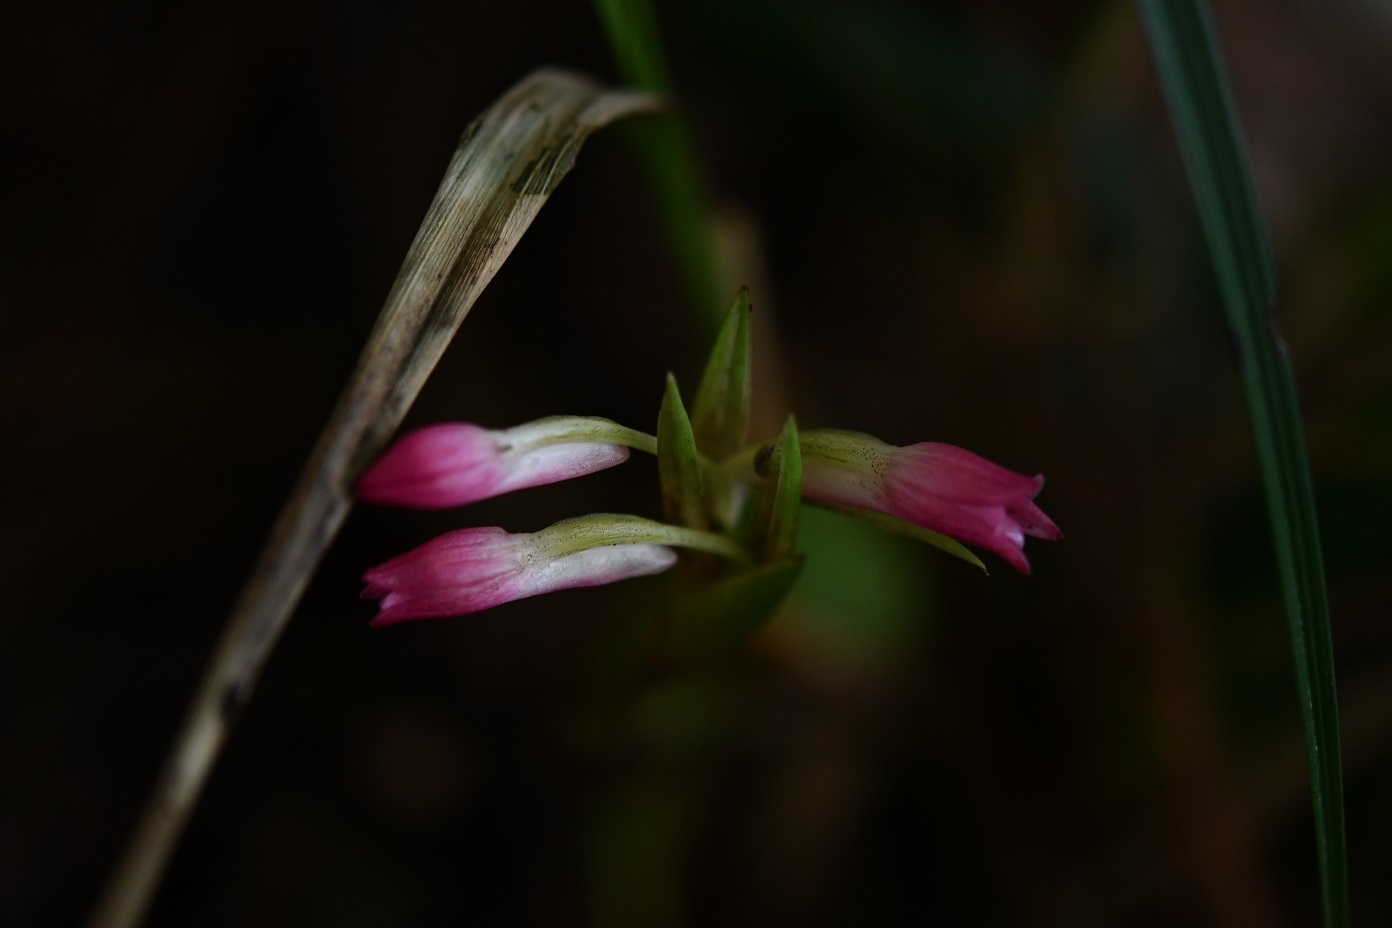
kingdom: Plantae
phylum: Tracheophyta
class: Liliopsida
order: Asparagales
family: Orchidaceae
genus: Coelia
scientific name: Coelia guatemalensis
